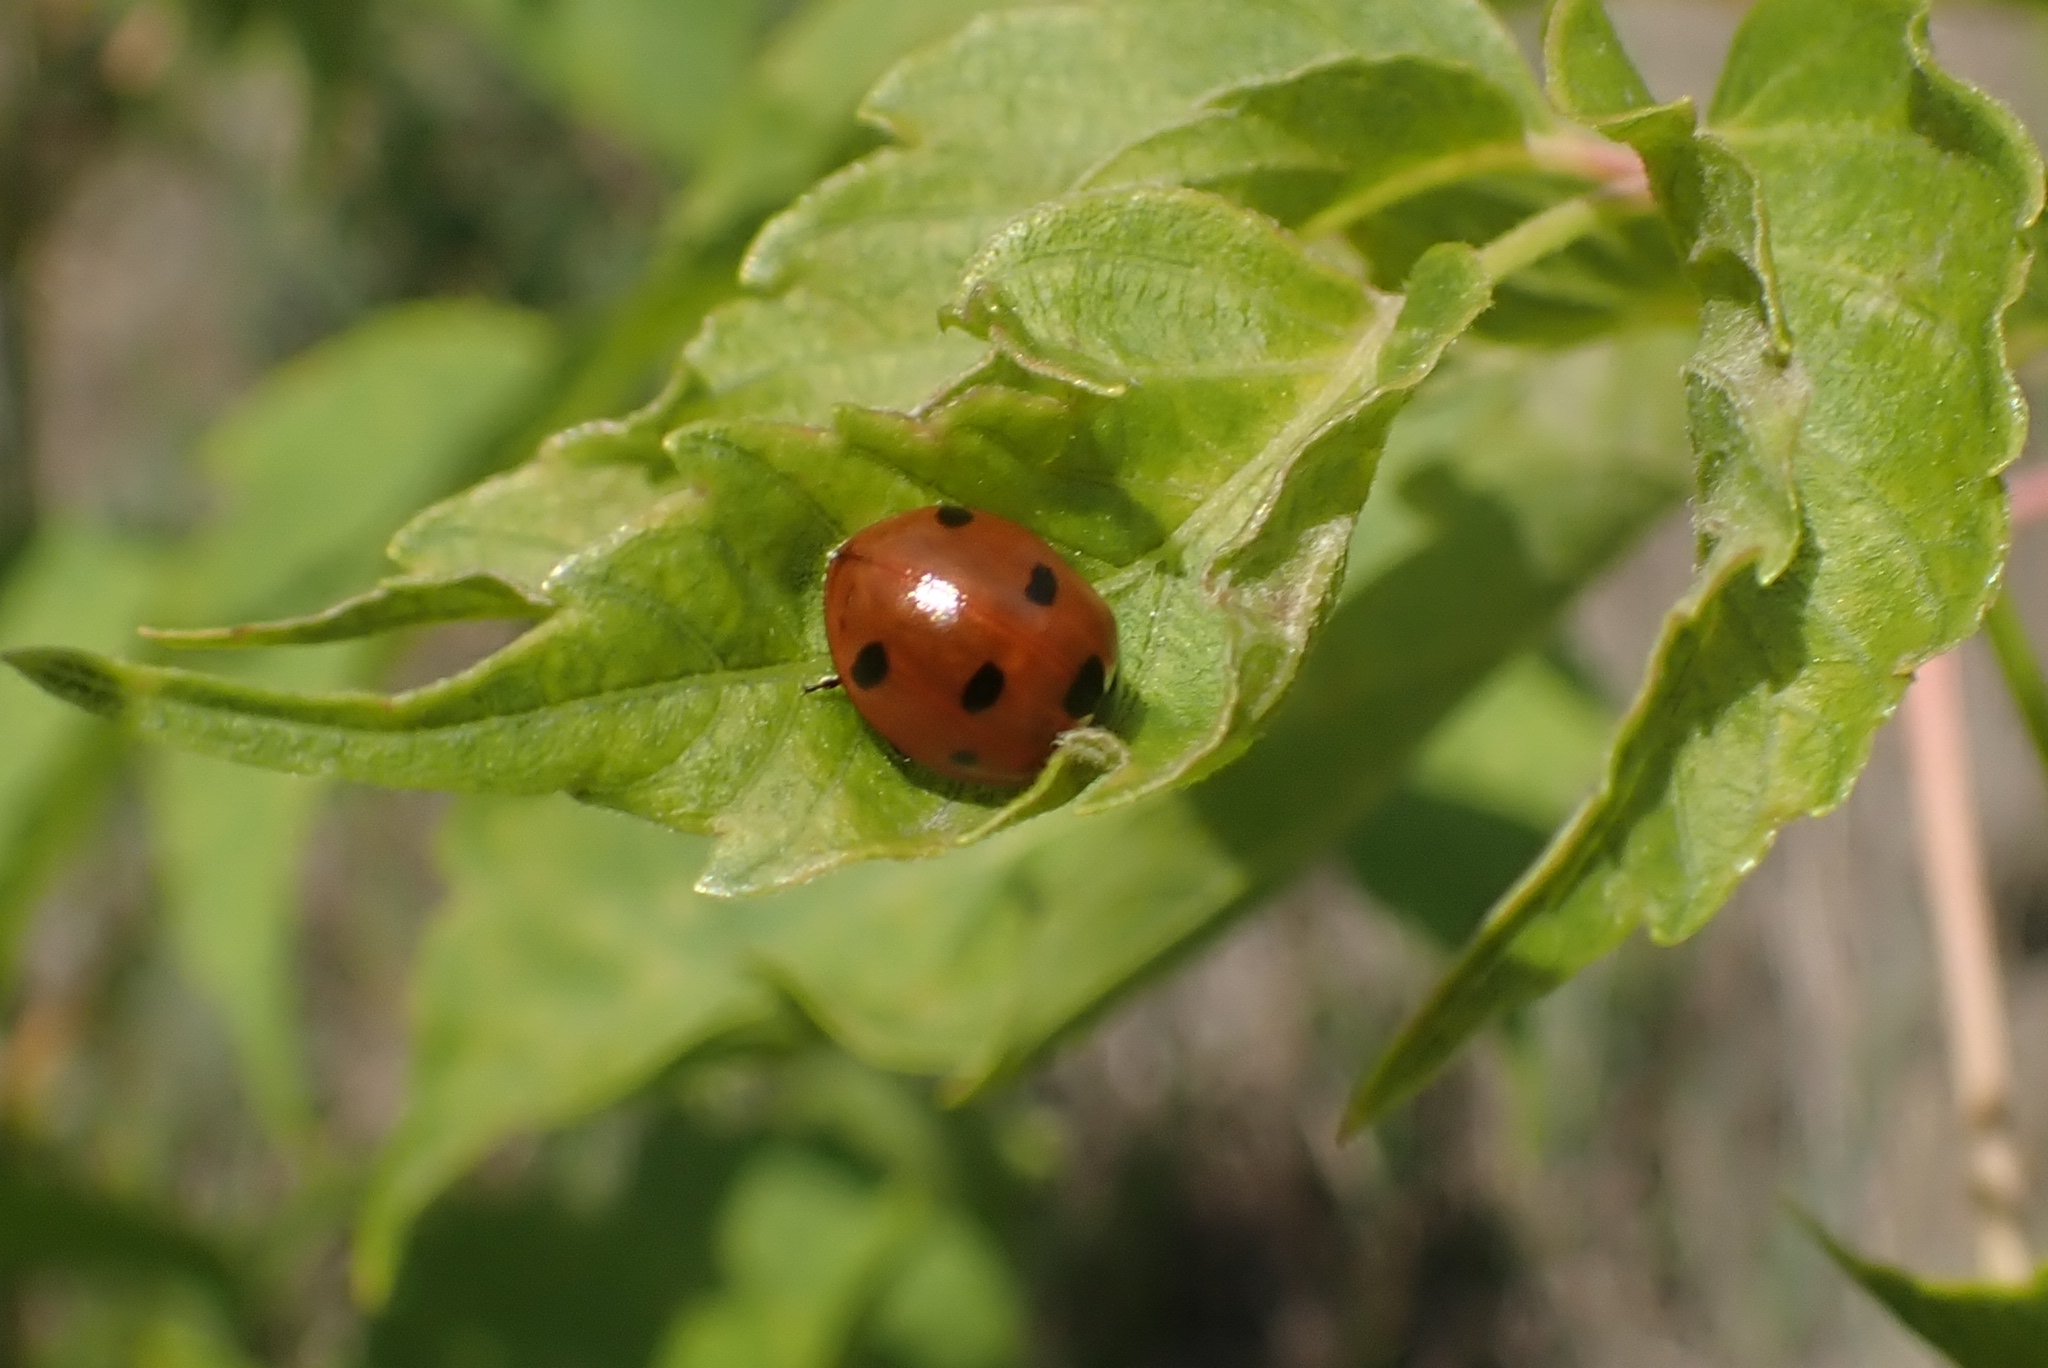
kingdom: Animalia
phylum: Arthropoda
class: Insecta
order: Coleoptera
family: Coccinellidae
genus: Coccinella
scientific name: Coccinella septempunctata
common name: Sevenspotted lady beetle
